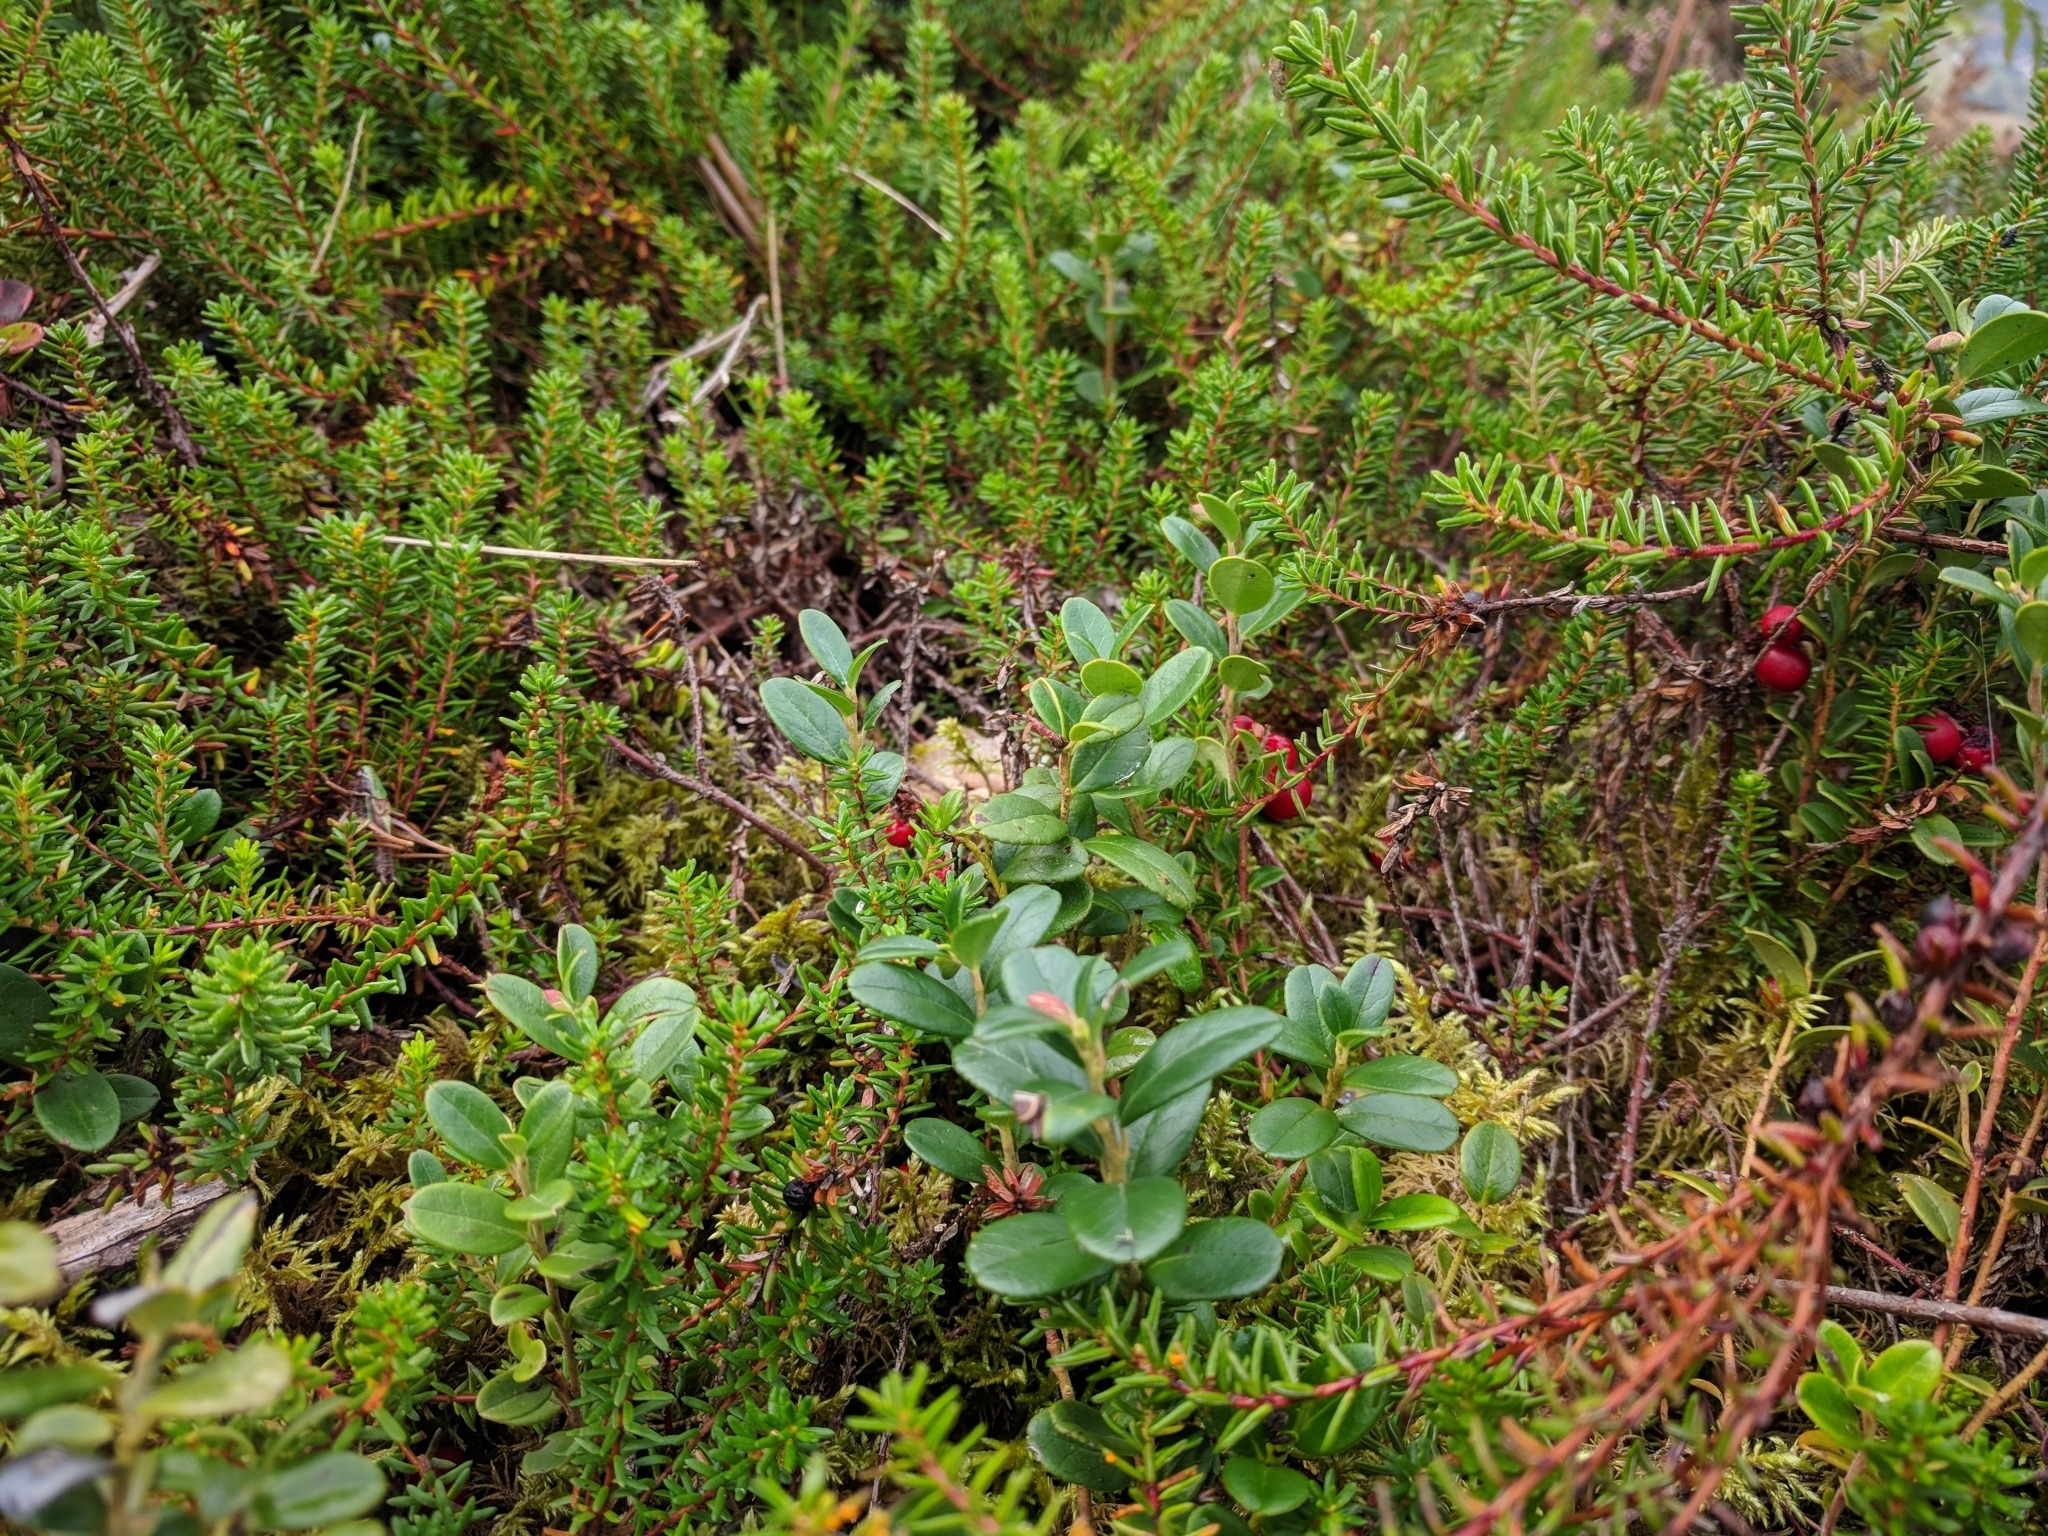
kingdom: Plantae
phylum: Tracheophyta
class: Magnoliopsida
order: Ericales
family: Ericaceae
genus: Vaccinium
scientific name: Vaccinium vitis-idaea
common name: Cowberry
